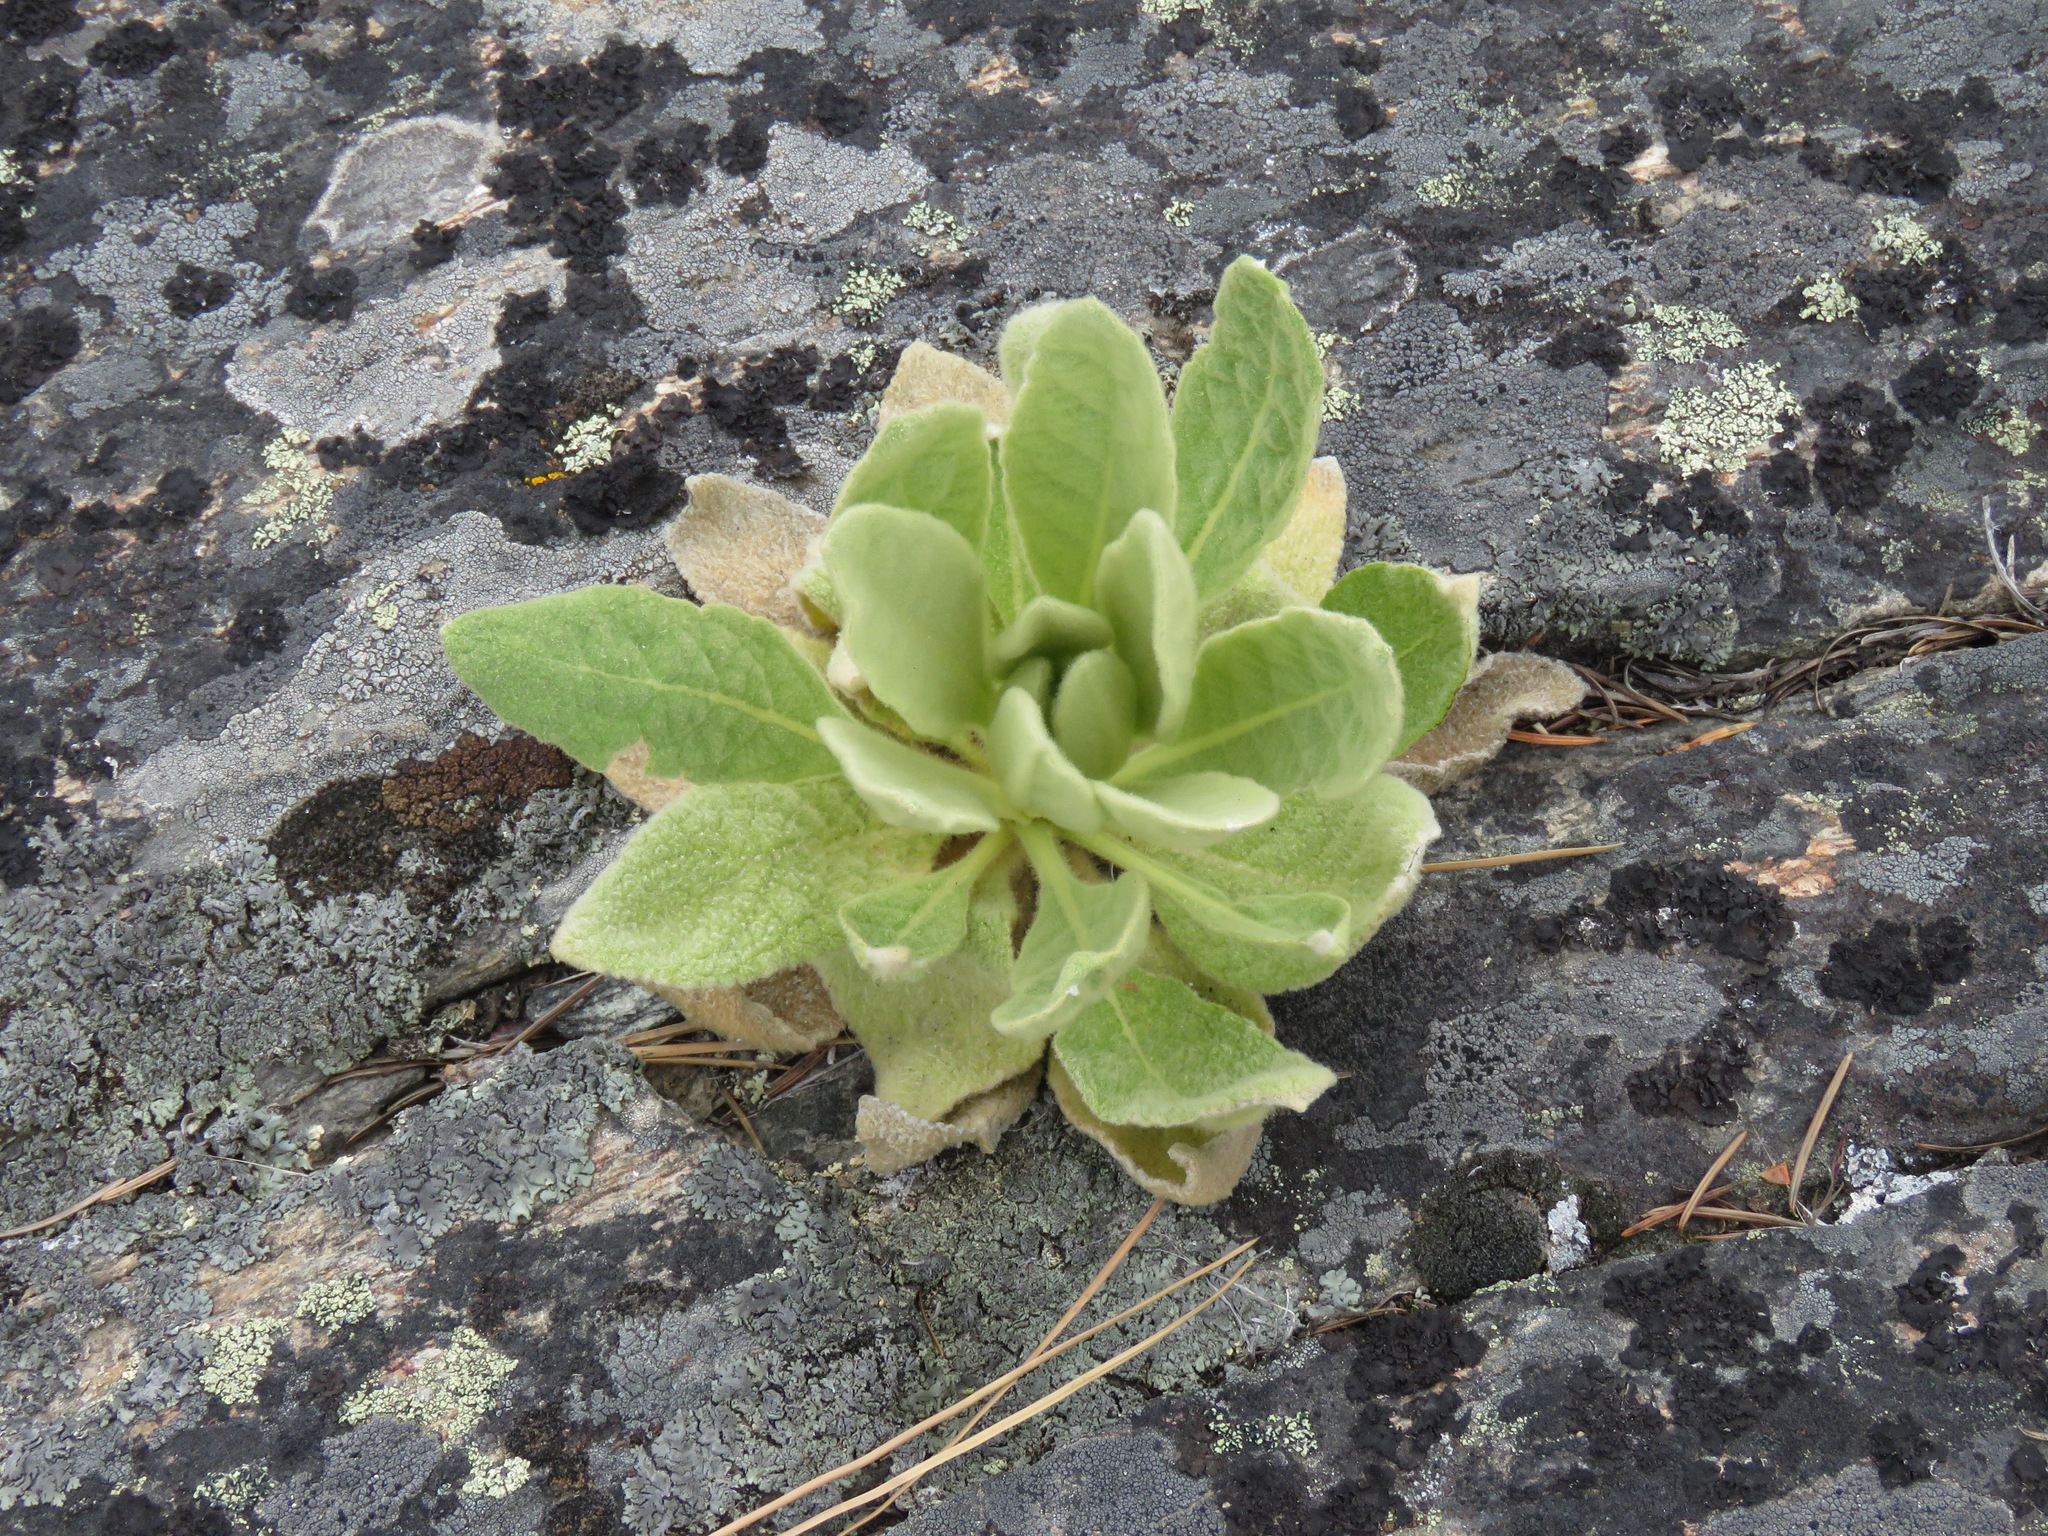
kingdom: Plantae
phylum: Tracheophyta
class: Magnoliopsida
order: Lamiales
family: Scrophulariaceae
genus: Verbascum
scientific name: Verbascum thapsus
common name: Common mullein
